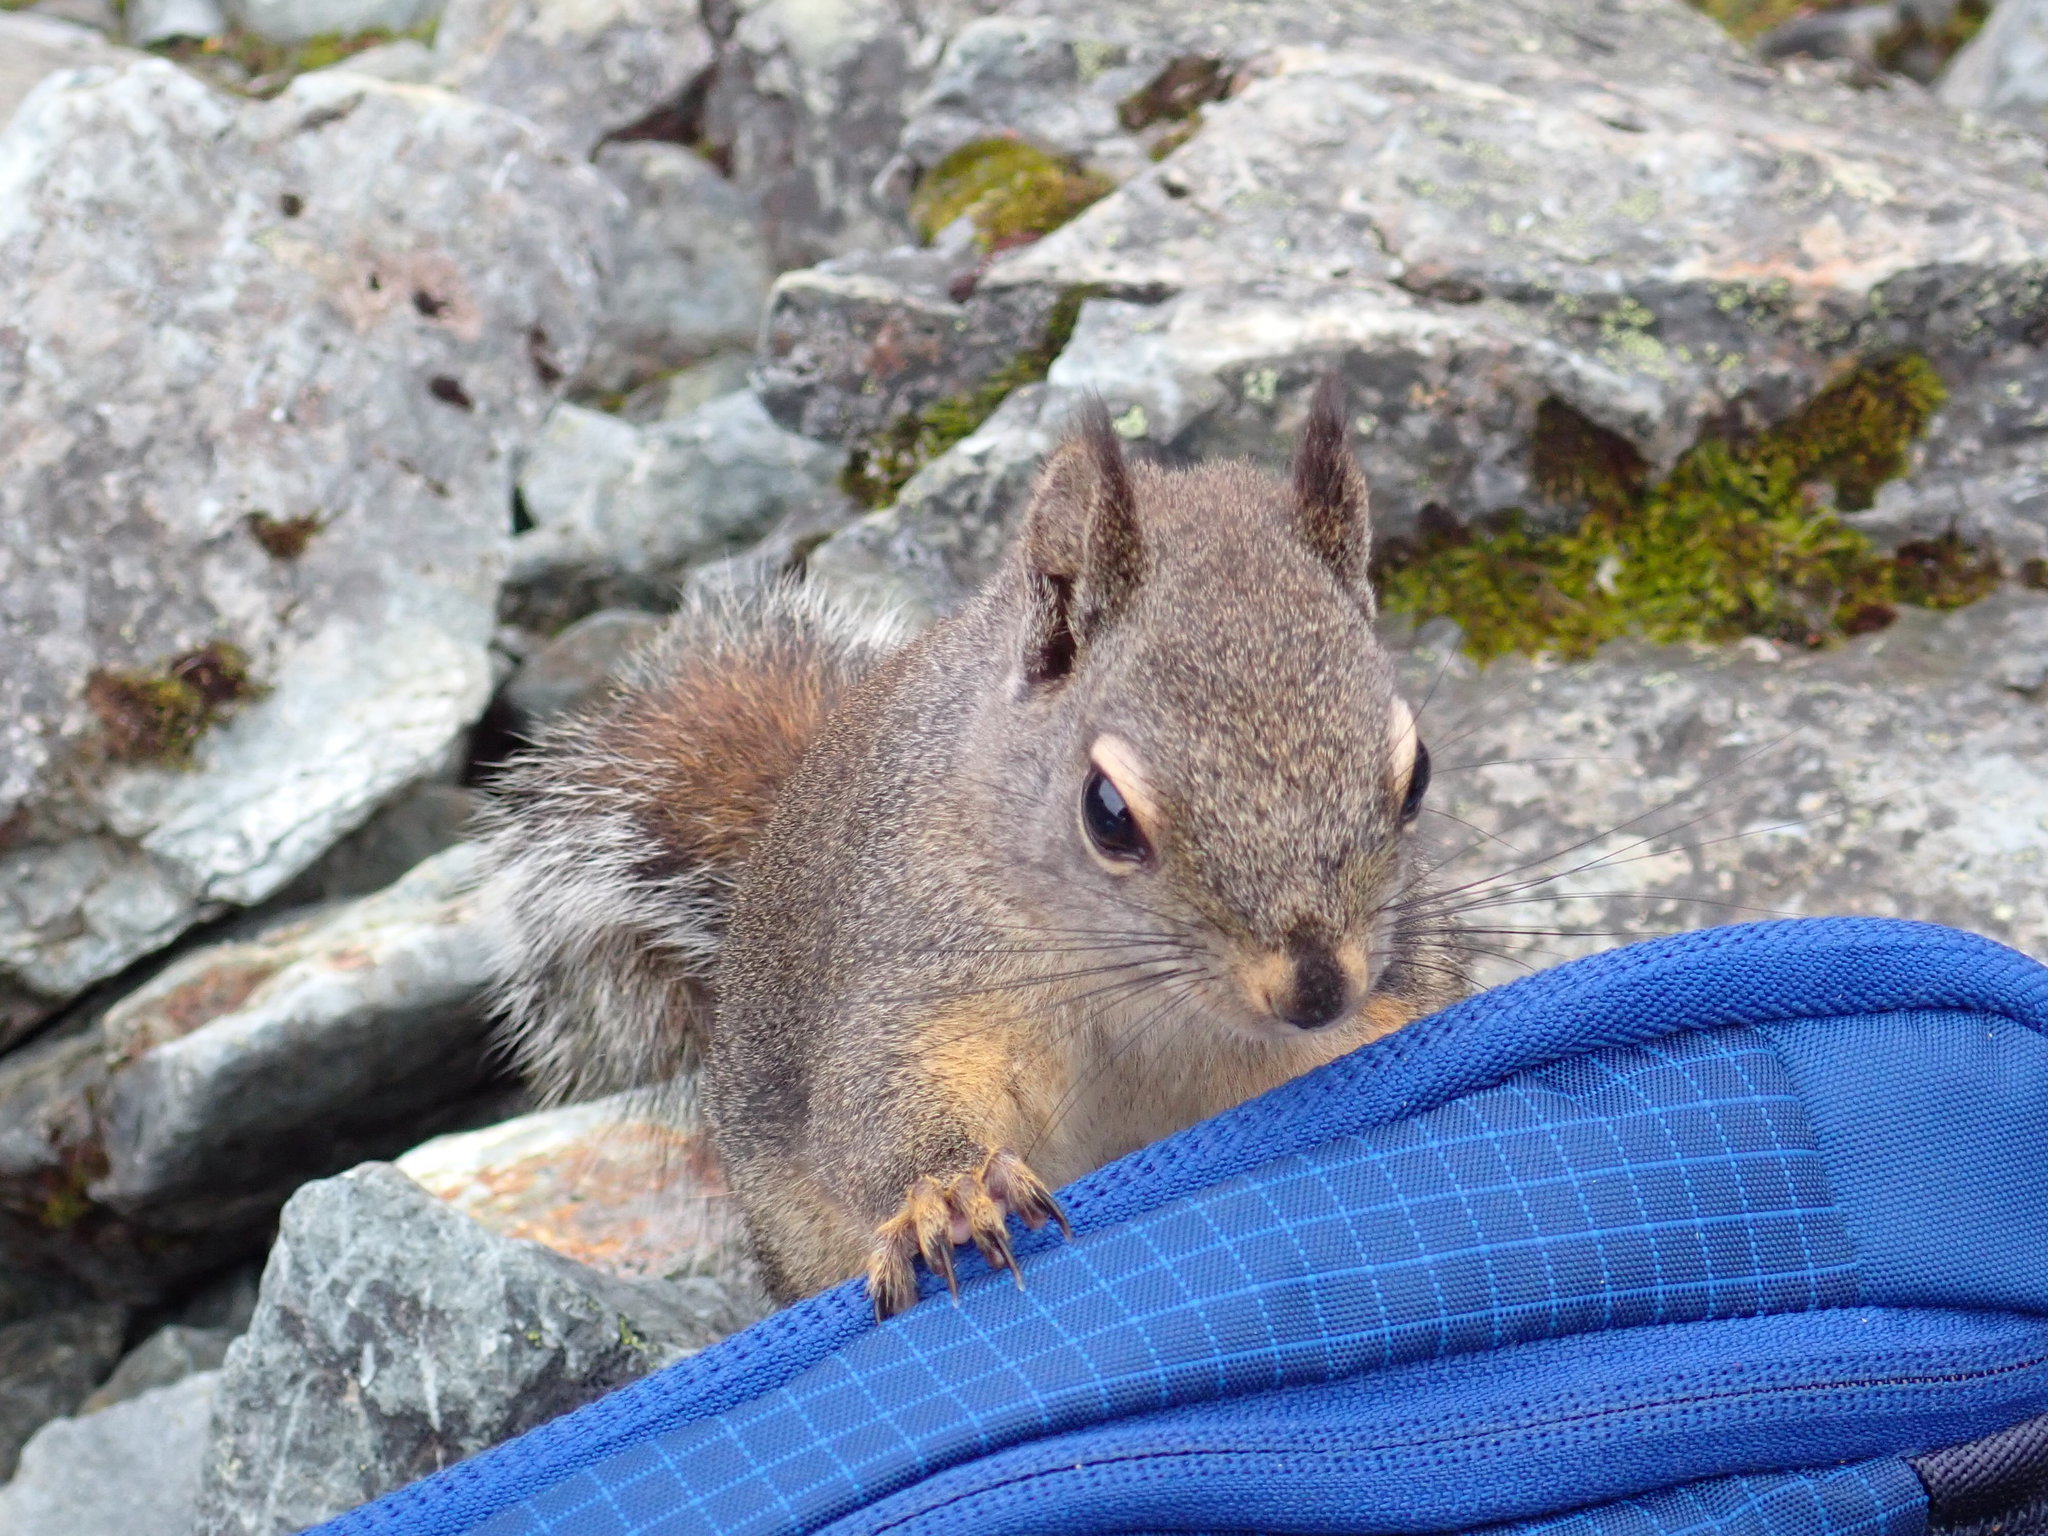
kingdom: Animalia
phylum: Chordata
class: Mammalia
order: Rodentia
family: Sciuridae
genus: Tamiasciurus
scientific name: Tamiasciurus douglasii
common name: Douglas's squirrel
